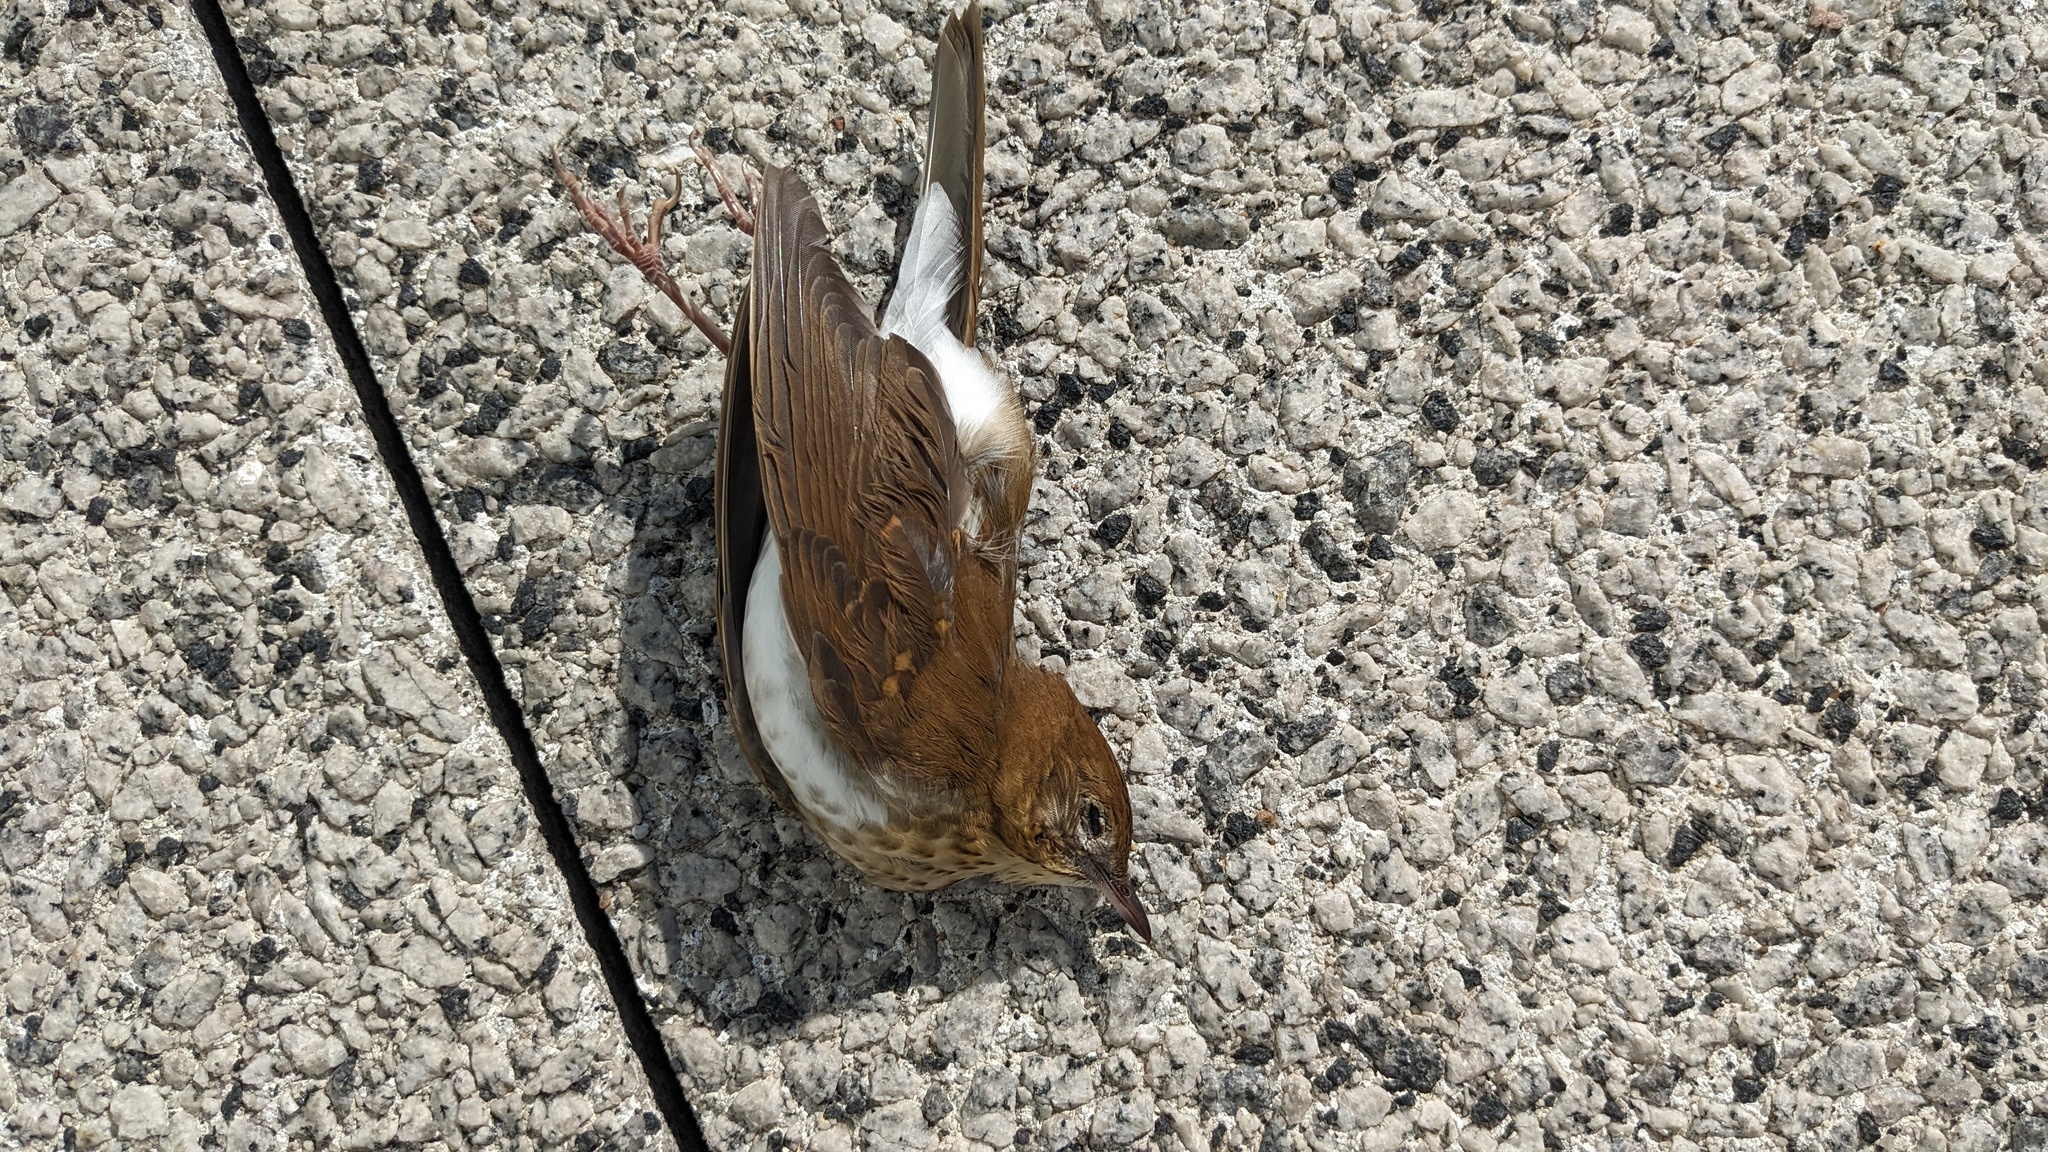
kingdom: Animalia
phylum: Chordata
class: Aves
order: Passeriformes
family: Turdidae
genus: Catharus
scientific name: Catharus fuscescens
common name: Veery
